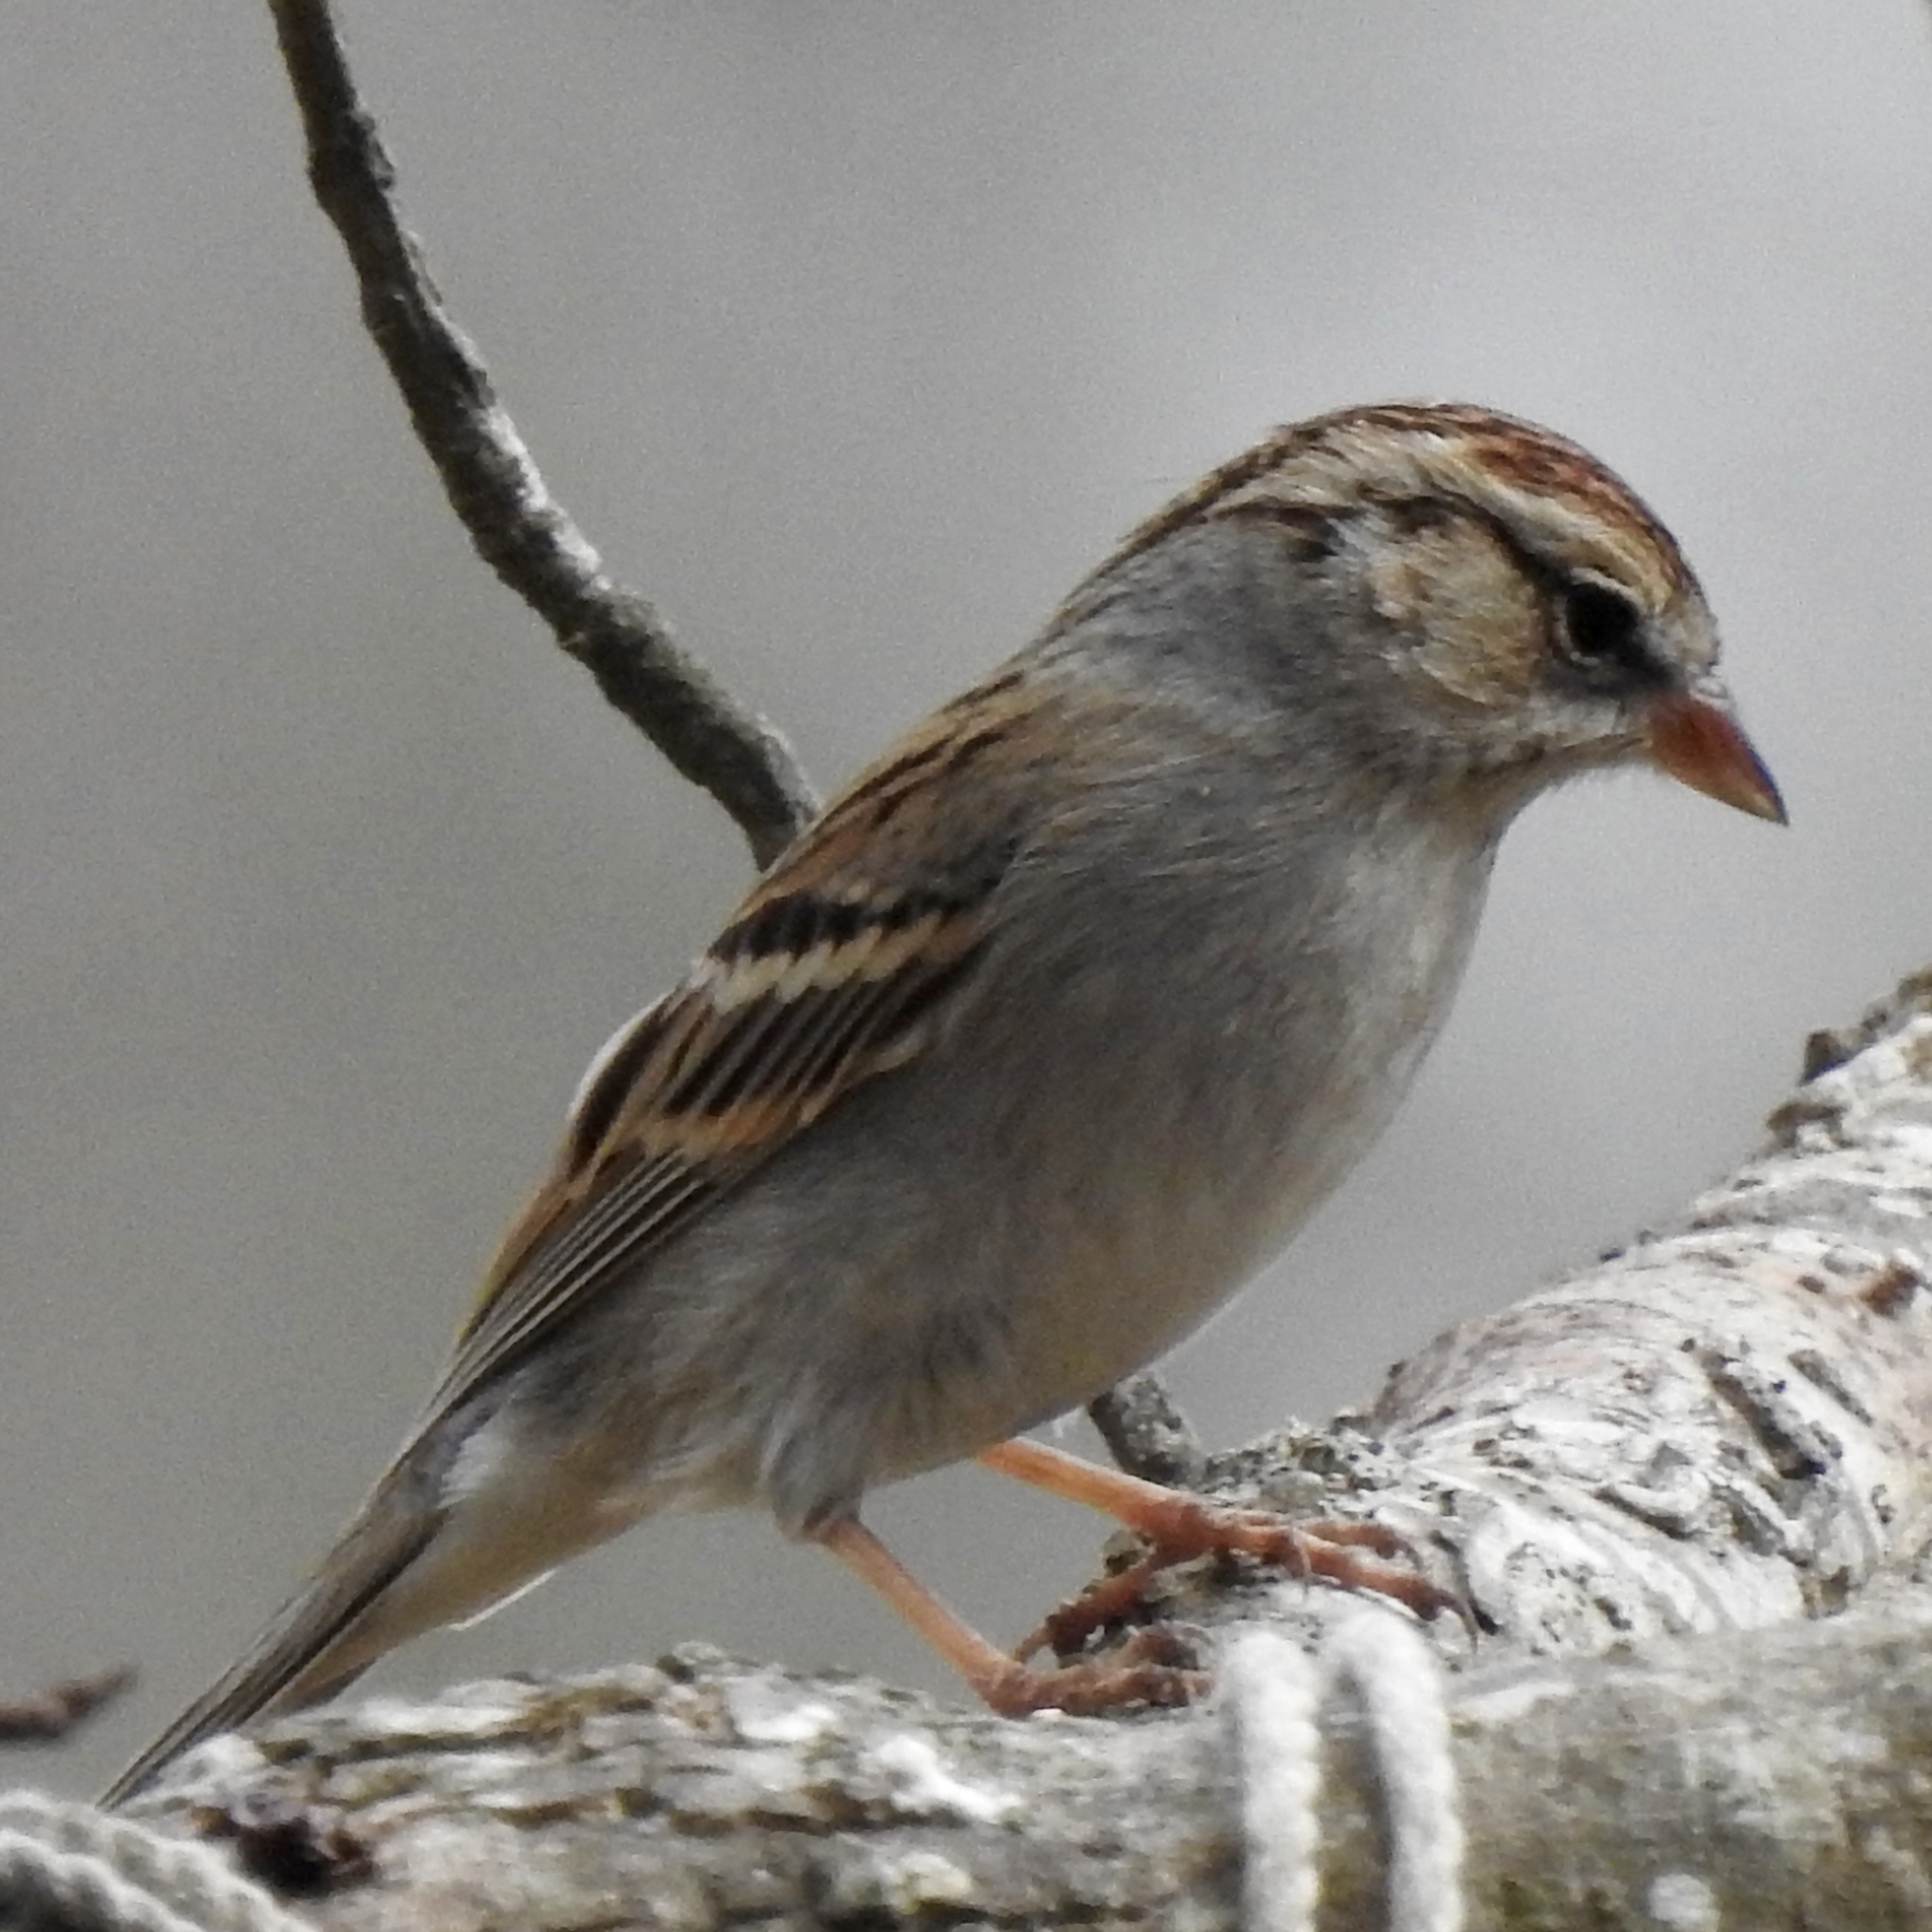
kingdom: Animalia
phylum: Chordata
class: Aves
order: Passeriformes
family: Passerellidae
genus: Spizella
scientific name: Spizella passerina
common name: Chipping sparrow
